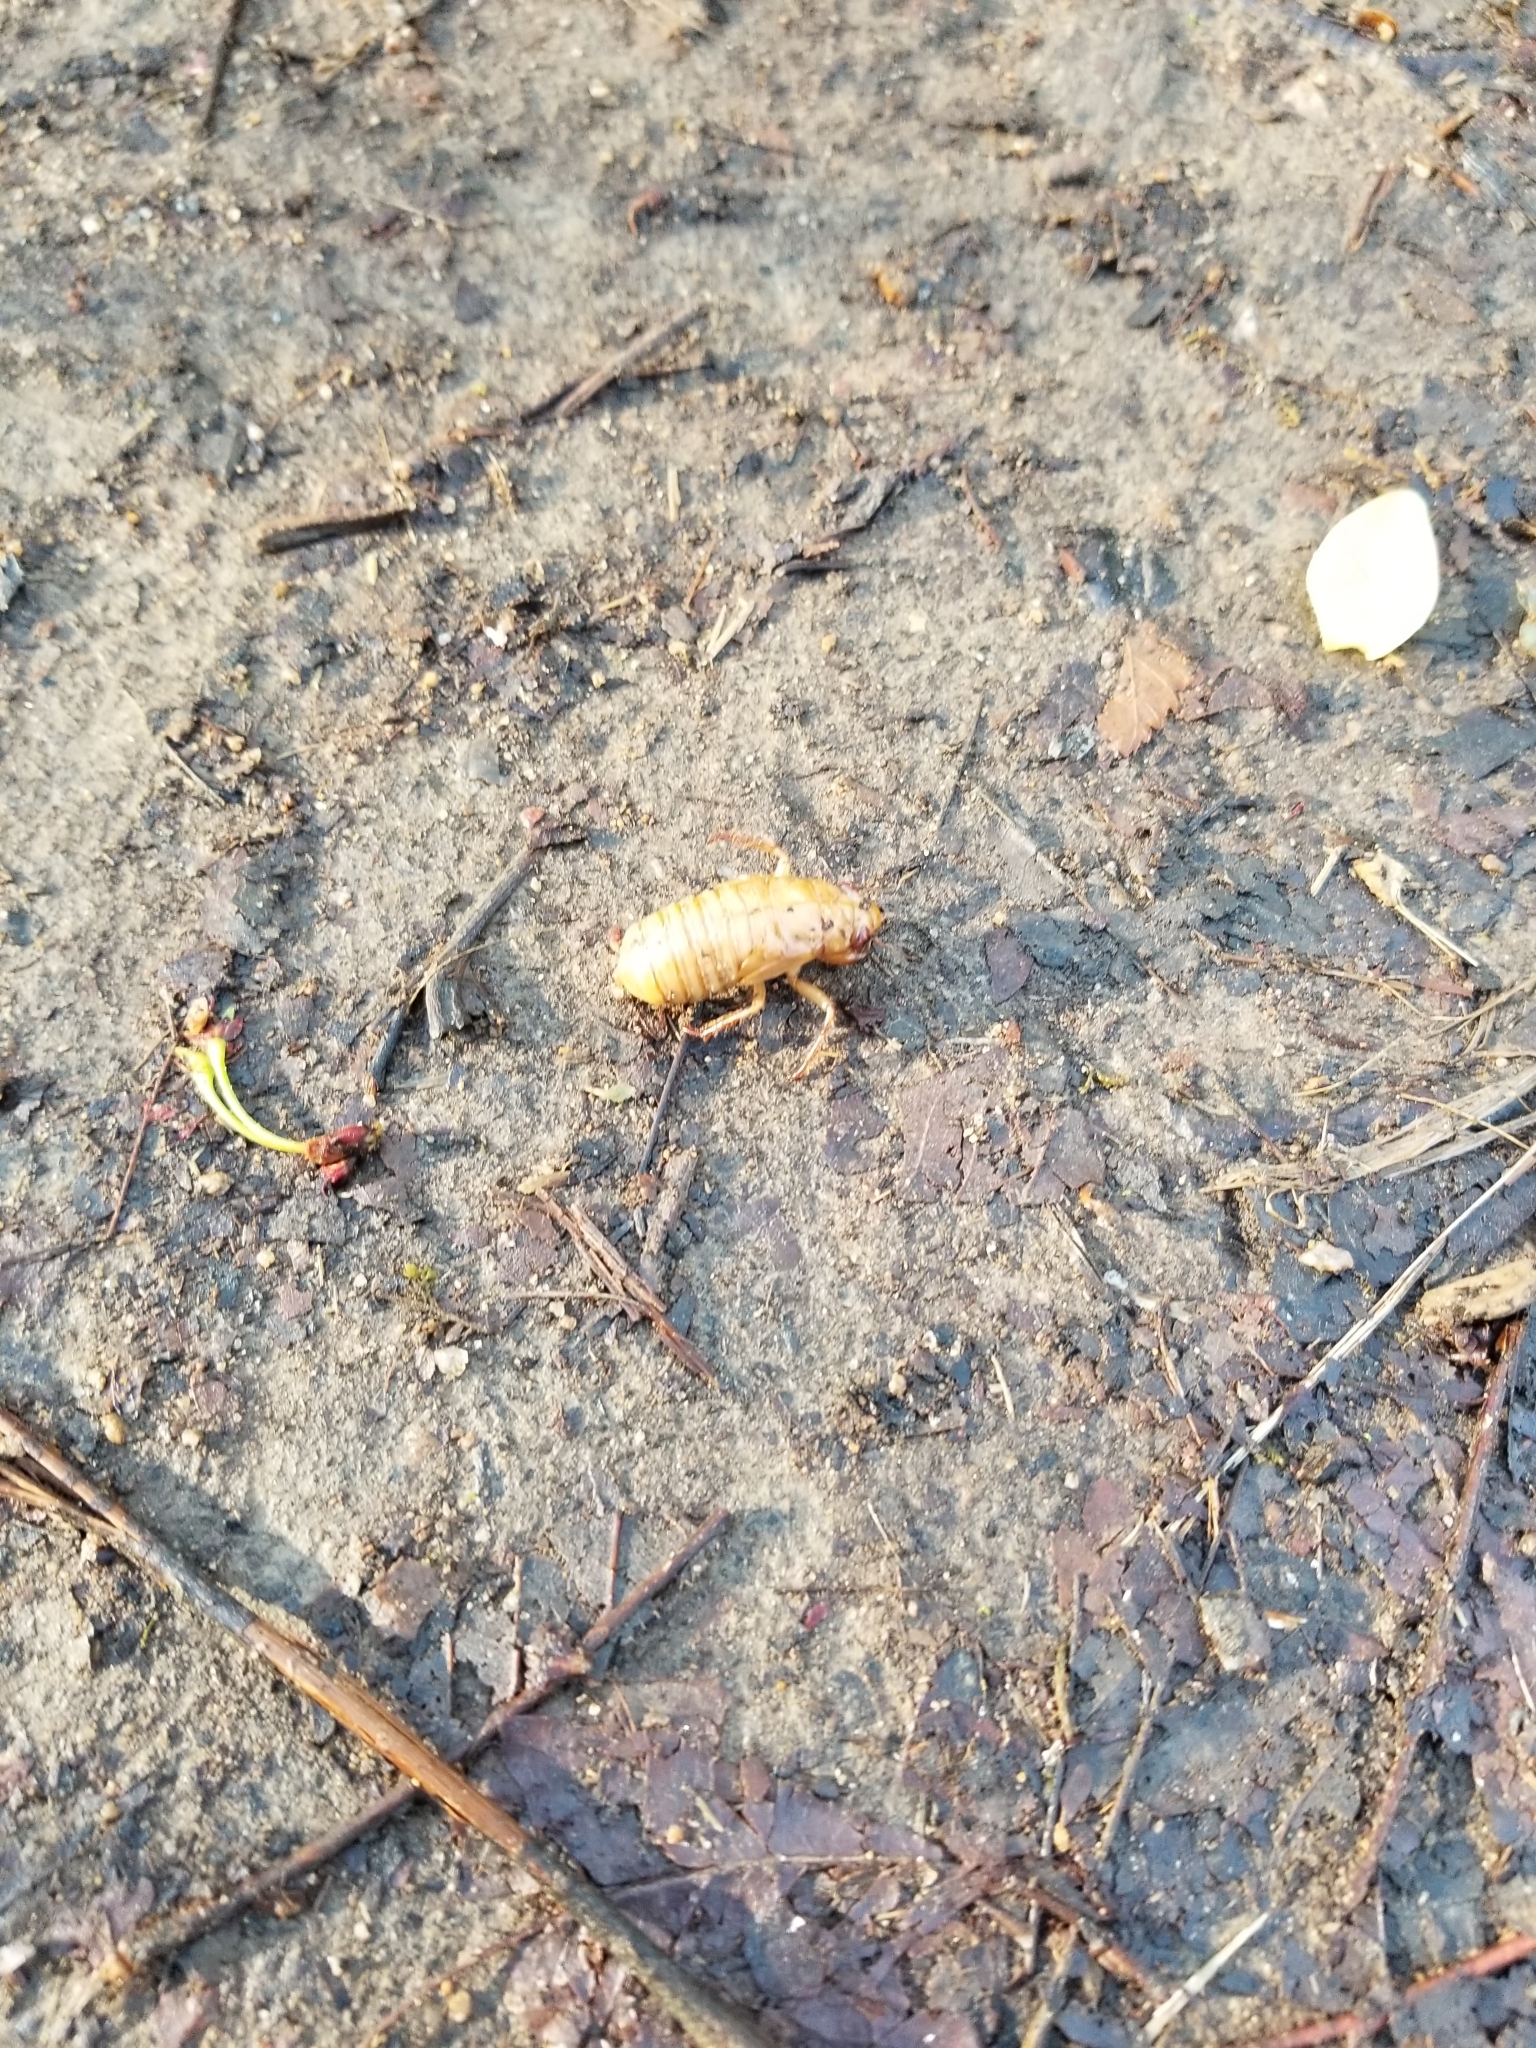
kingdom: Animalia
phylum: Arthropoda
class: Insecta
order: Hemiptera
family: Cicadidae
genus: Magicicada
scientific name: Magicicada
